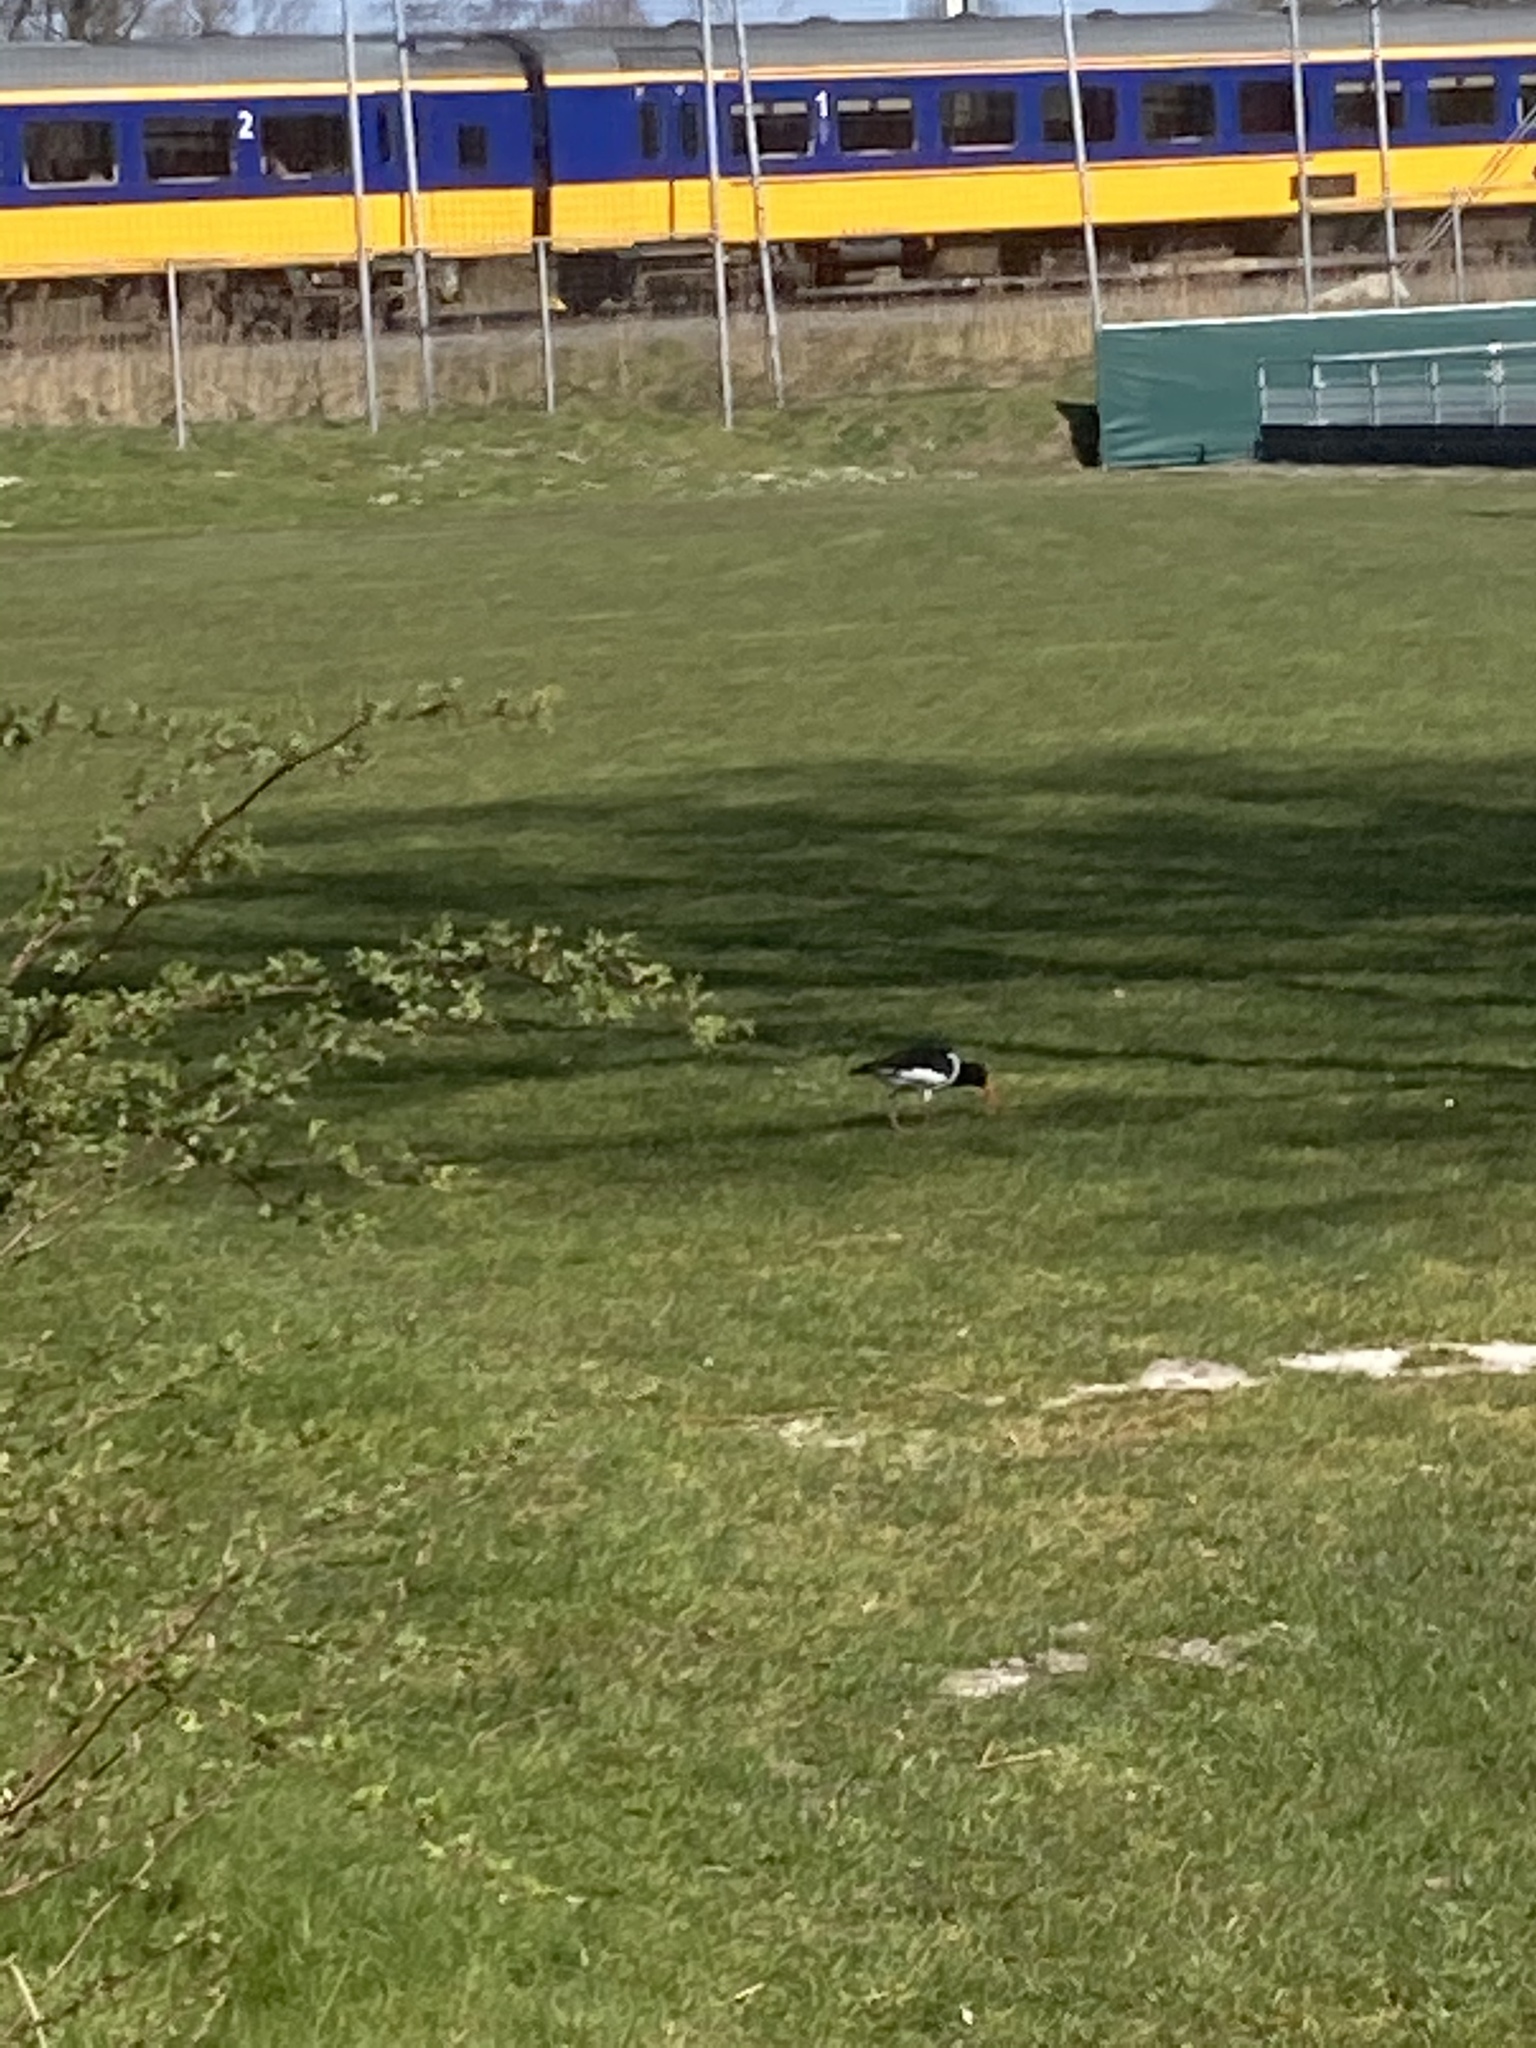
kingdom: Animalia
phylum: Chordata
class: Aves
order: Charadriiformes
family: Haematopodidae
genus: Haematopus
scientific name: Haematopus ostralegus
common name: Eurasian oystercatcher
